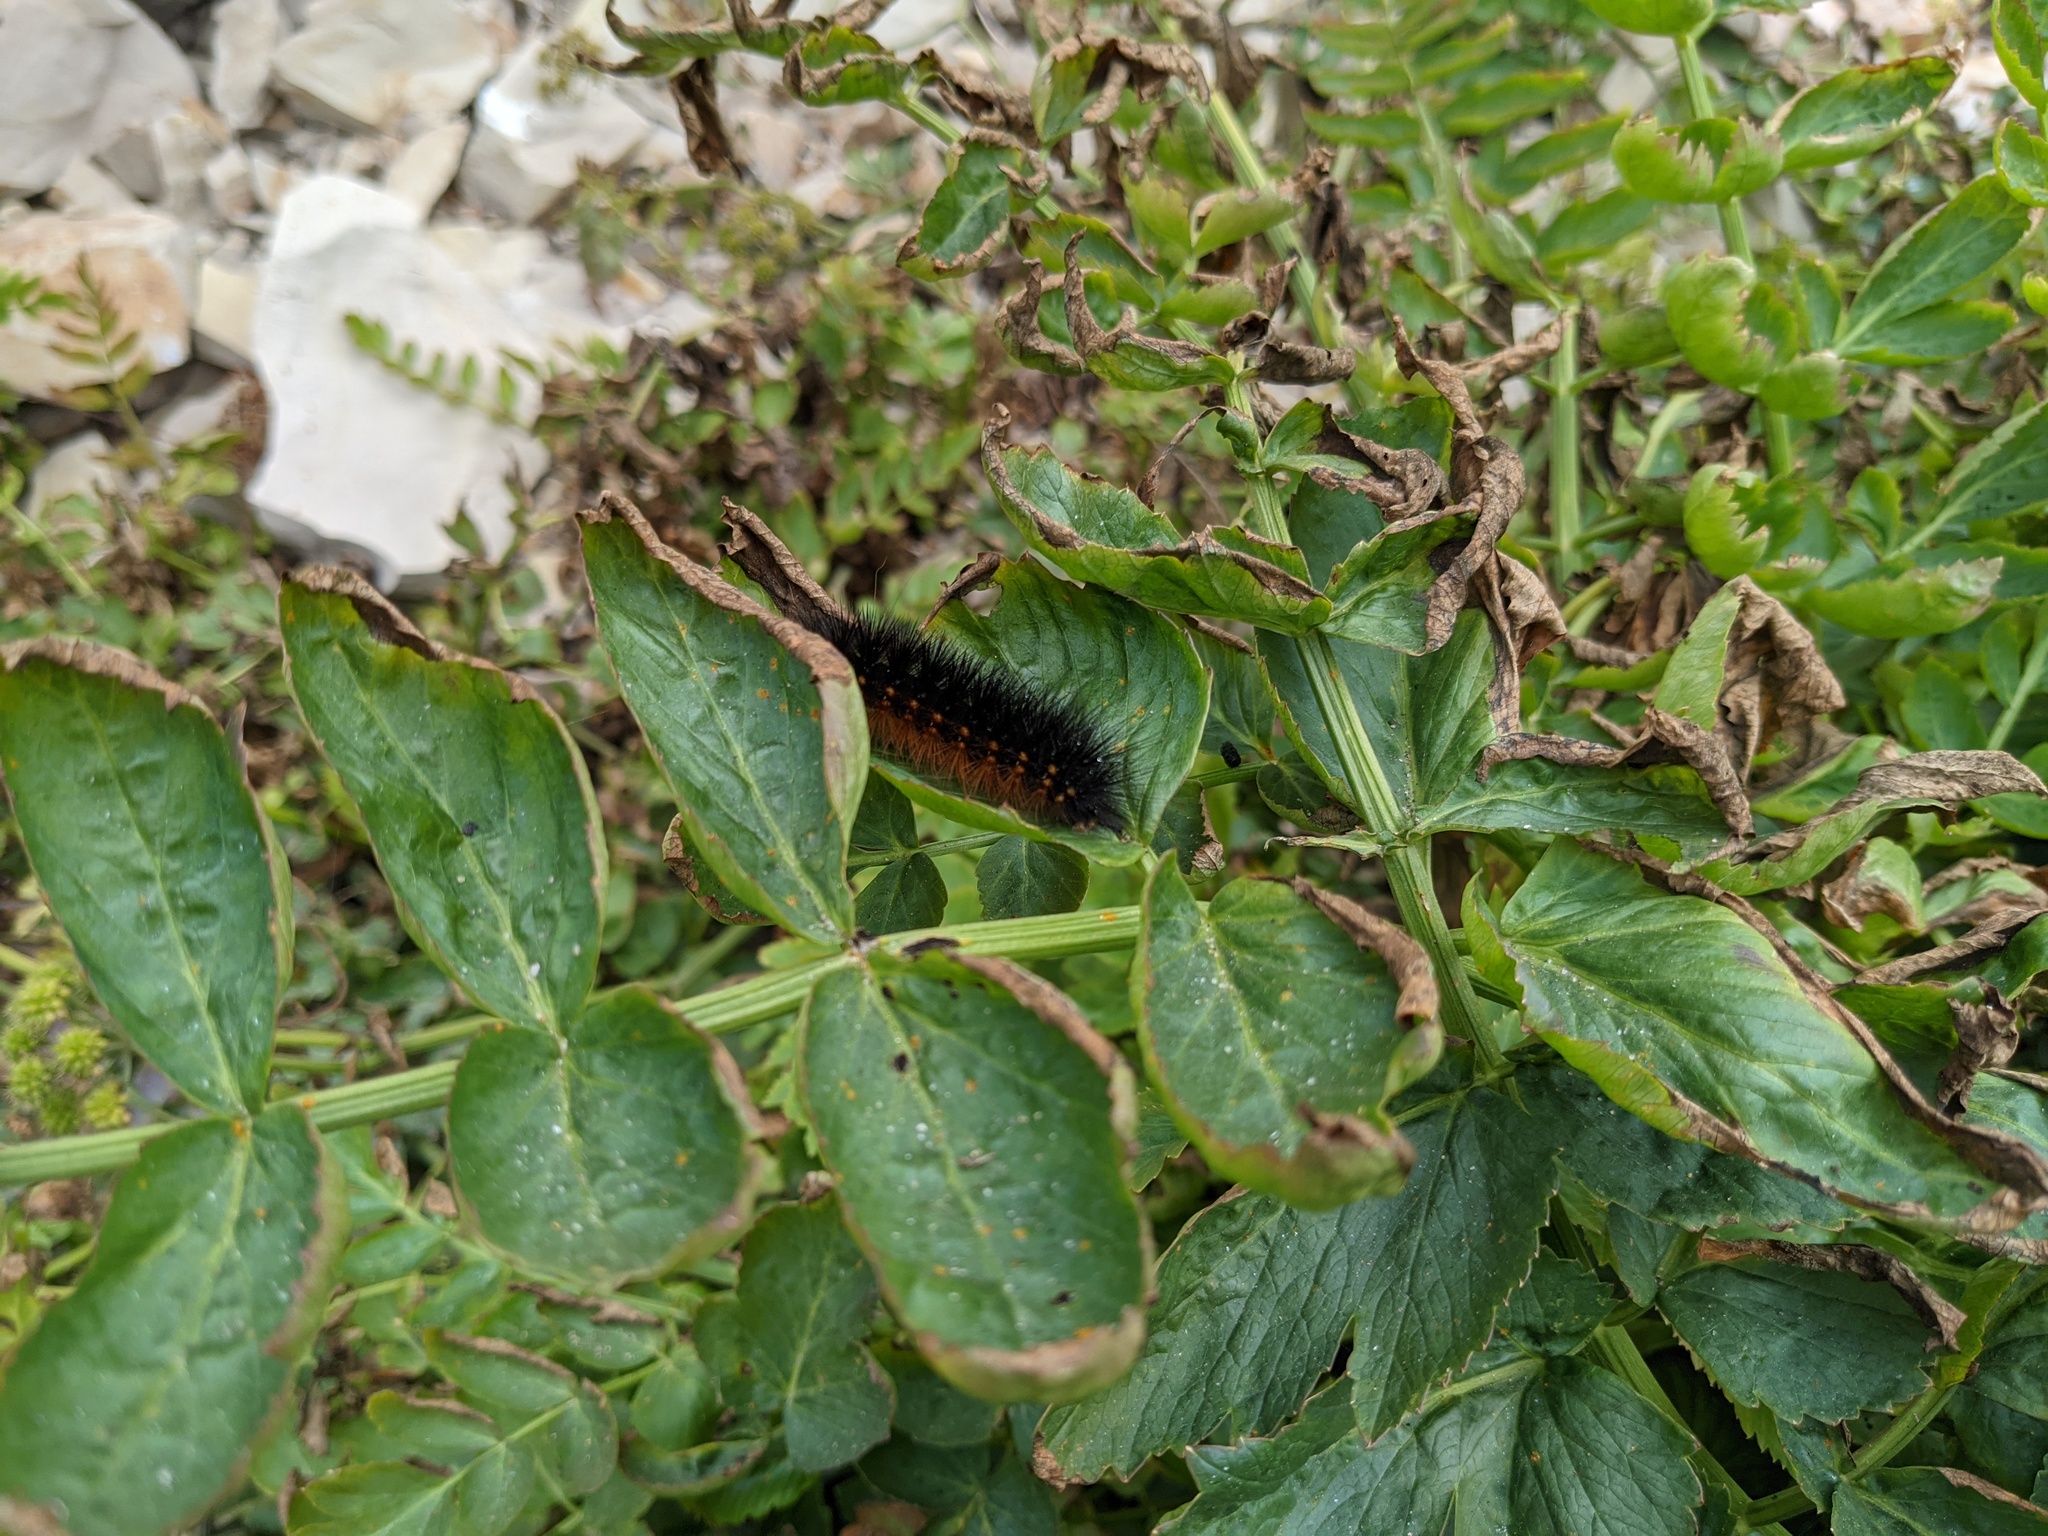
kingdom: Plantae
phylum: Tracheophyta
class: Magnoliopsida
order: Apiales
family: Apiaceae
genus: Oenanthe
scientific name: Oenanthe sarmentosa
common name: American water-parsley
